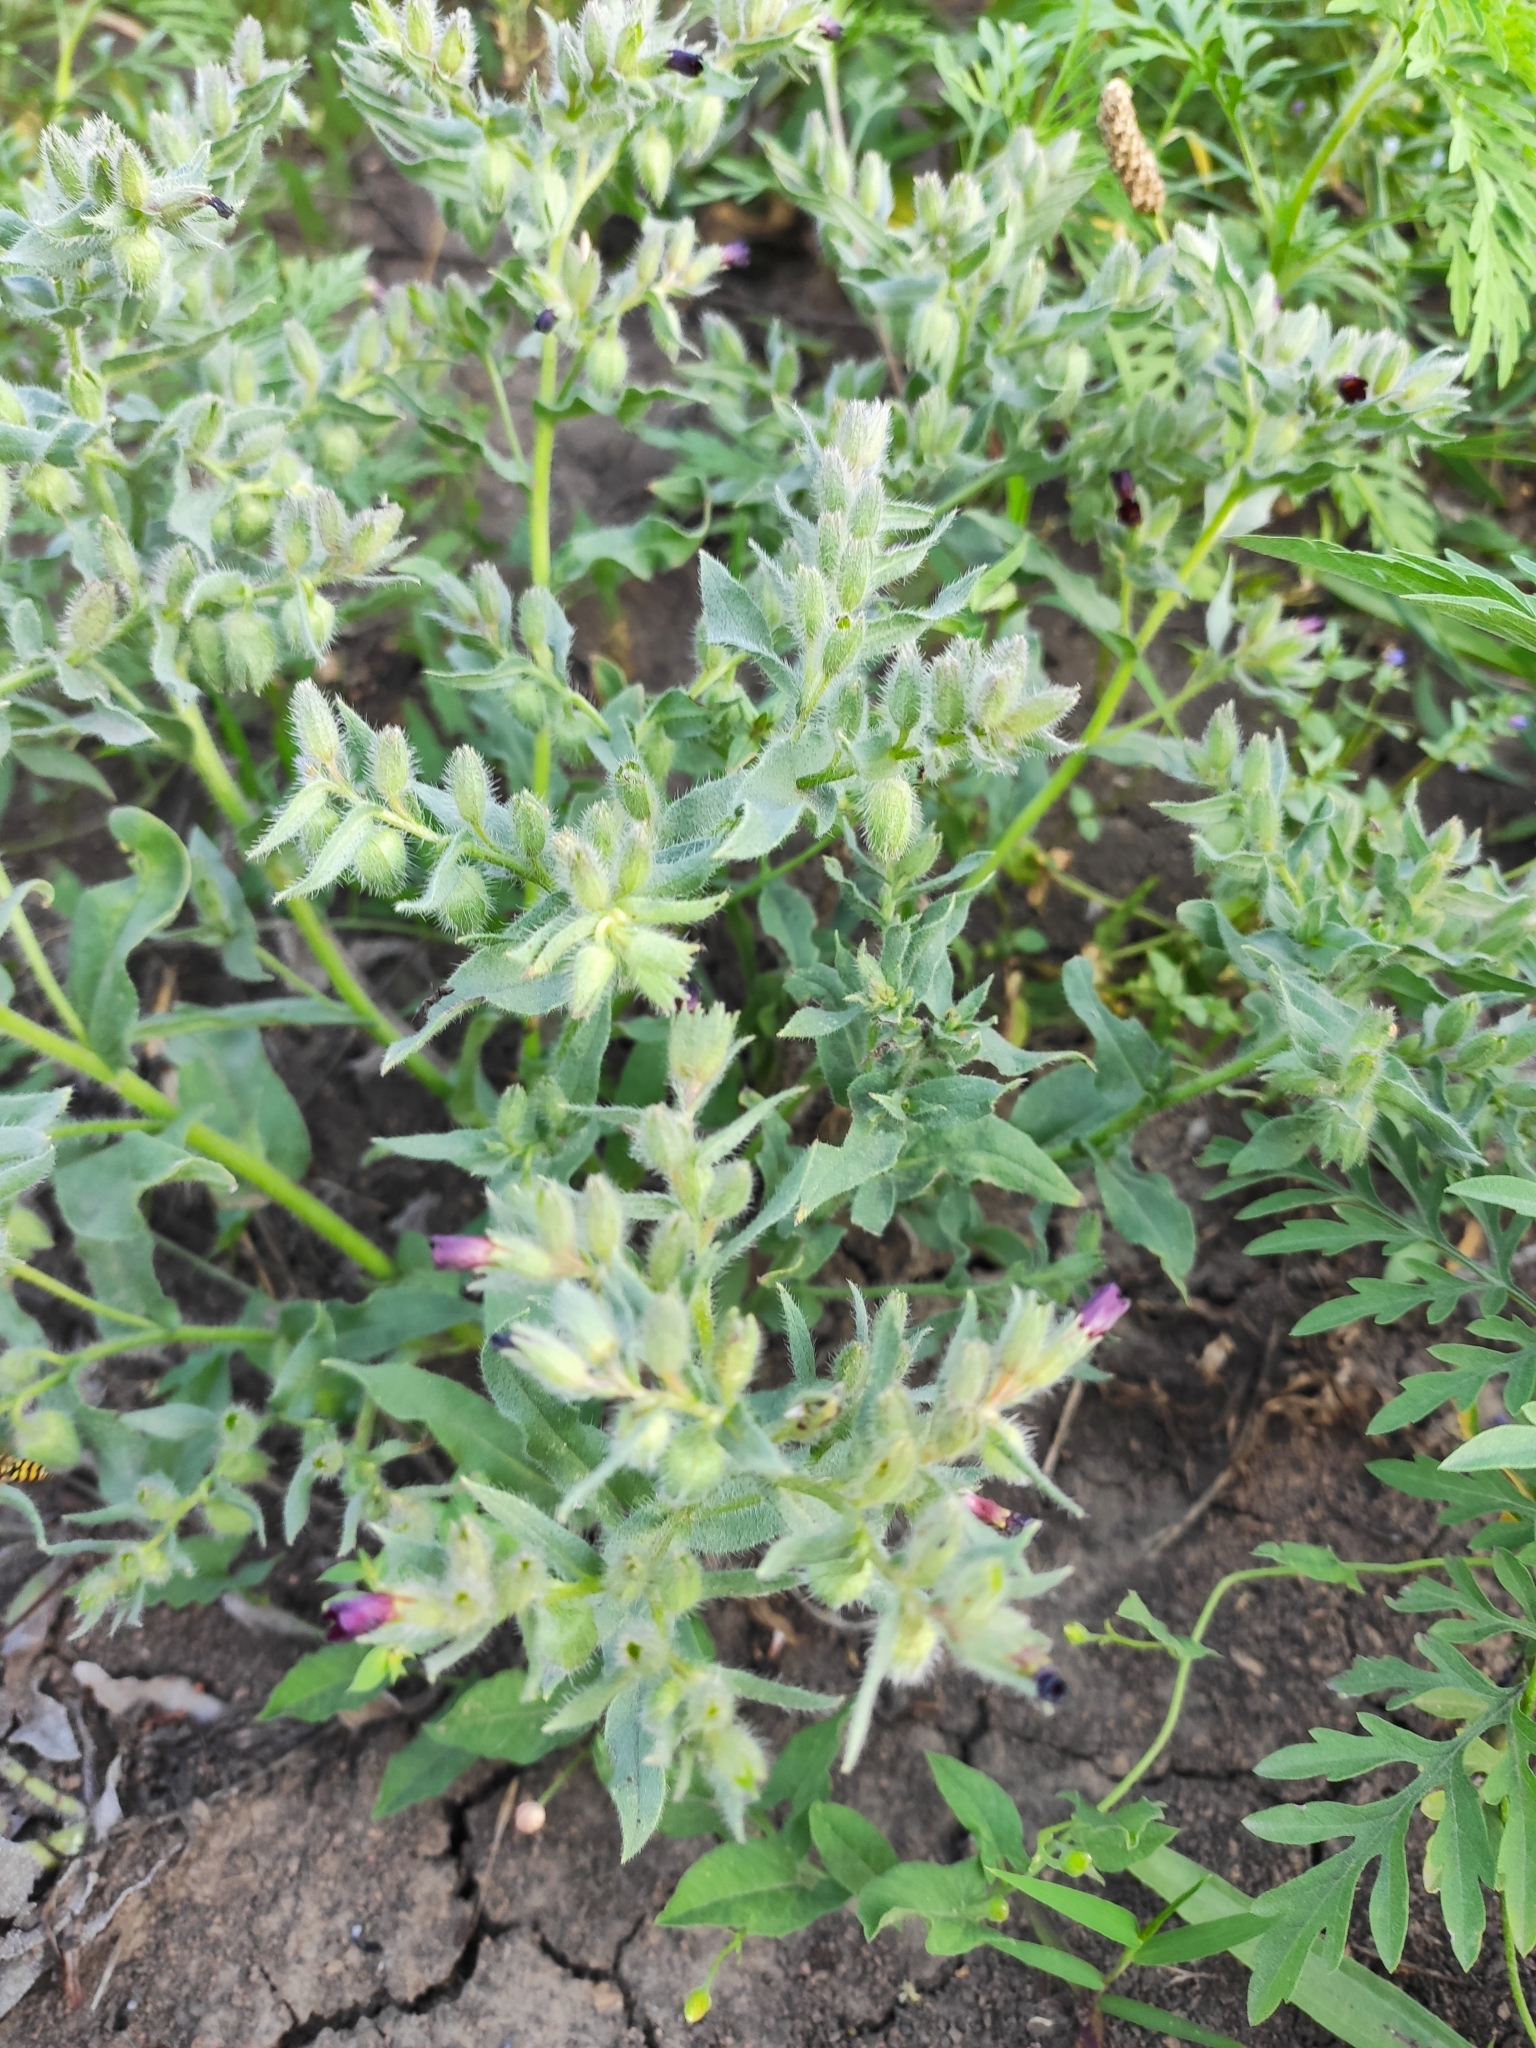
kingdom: Plantae
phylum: Tracheophyta
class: Magnoliopsida
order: Boraginales
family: Boraginaceae
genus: Nonea
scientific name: Nonea pulla
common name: Brown nonea
